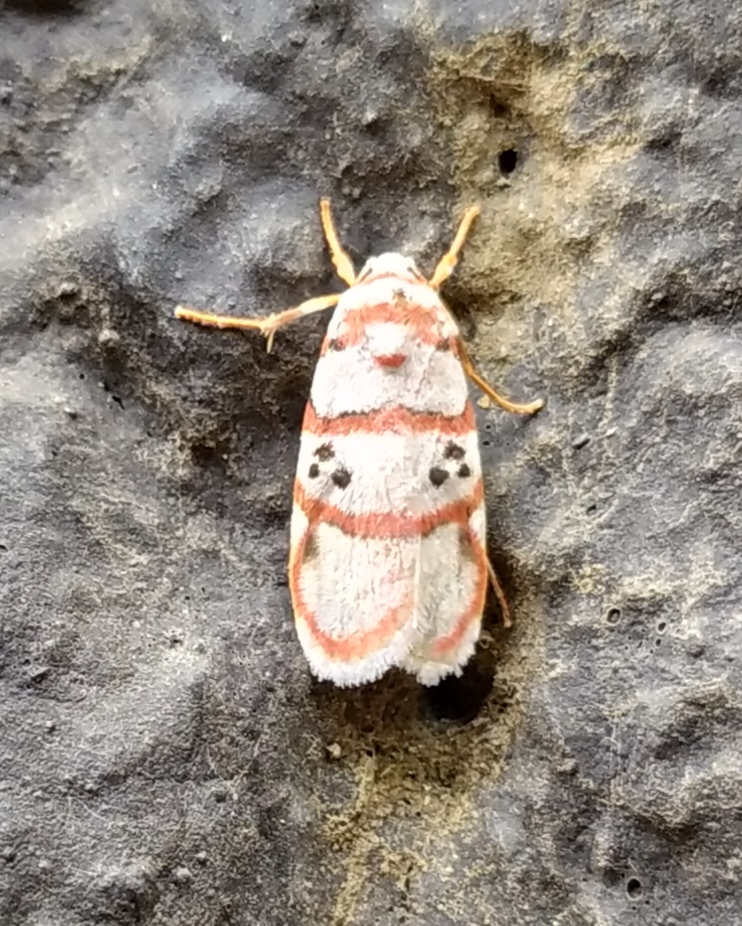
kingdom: Animalia
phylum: Arthropoda
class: Insecta
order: Lepidoptera
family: Erebidae
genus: Cyana
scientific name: Cyana peregrina
